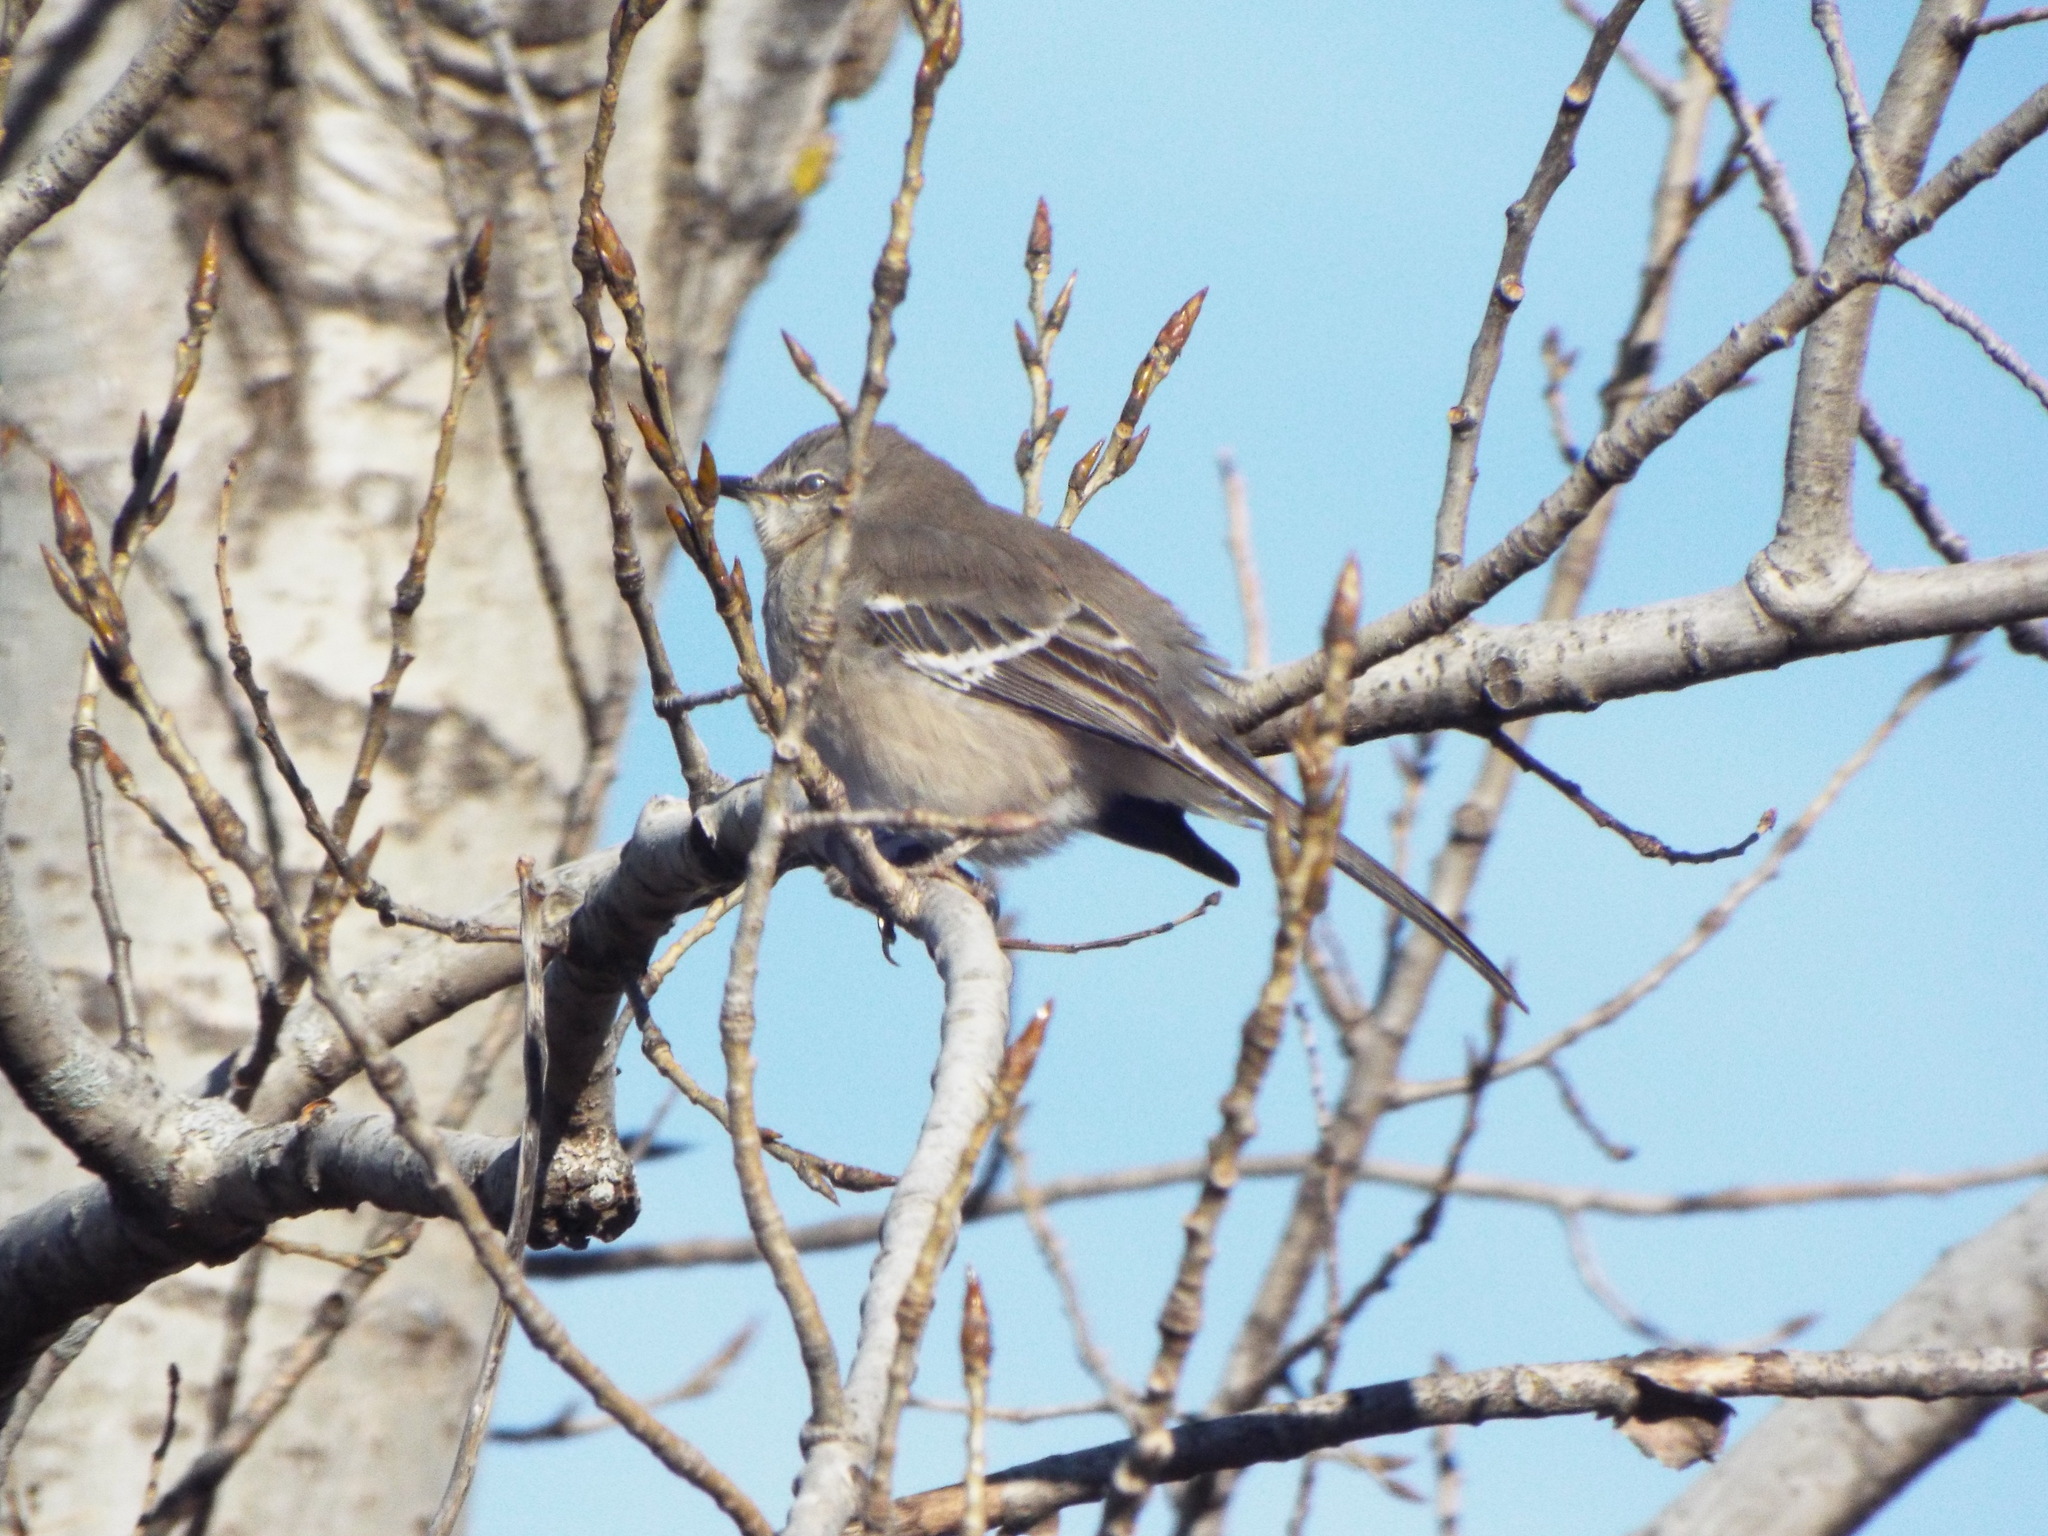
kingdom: Animalia
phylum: Chordata
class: Aves
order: Passeriformes
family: Mimidae
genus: Mimus
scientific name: Mimus polyglottos
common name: Northern mockingbird
